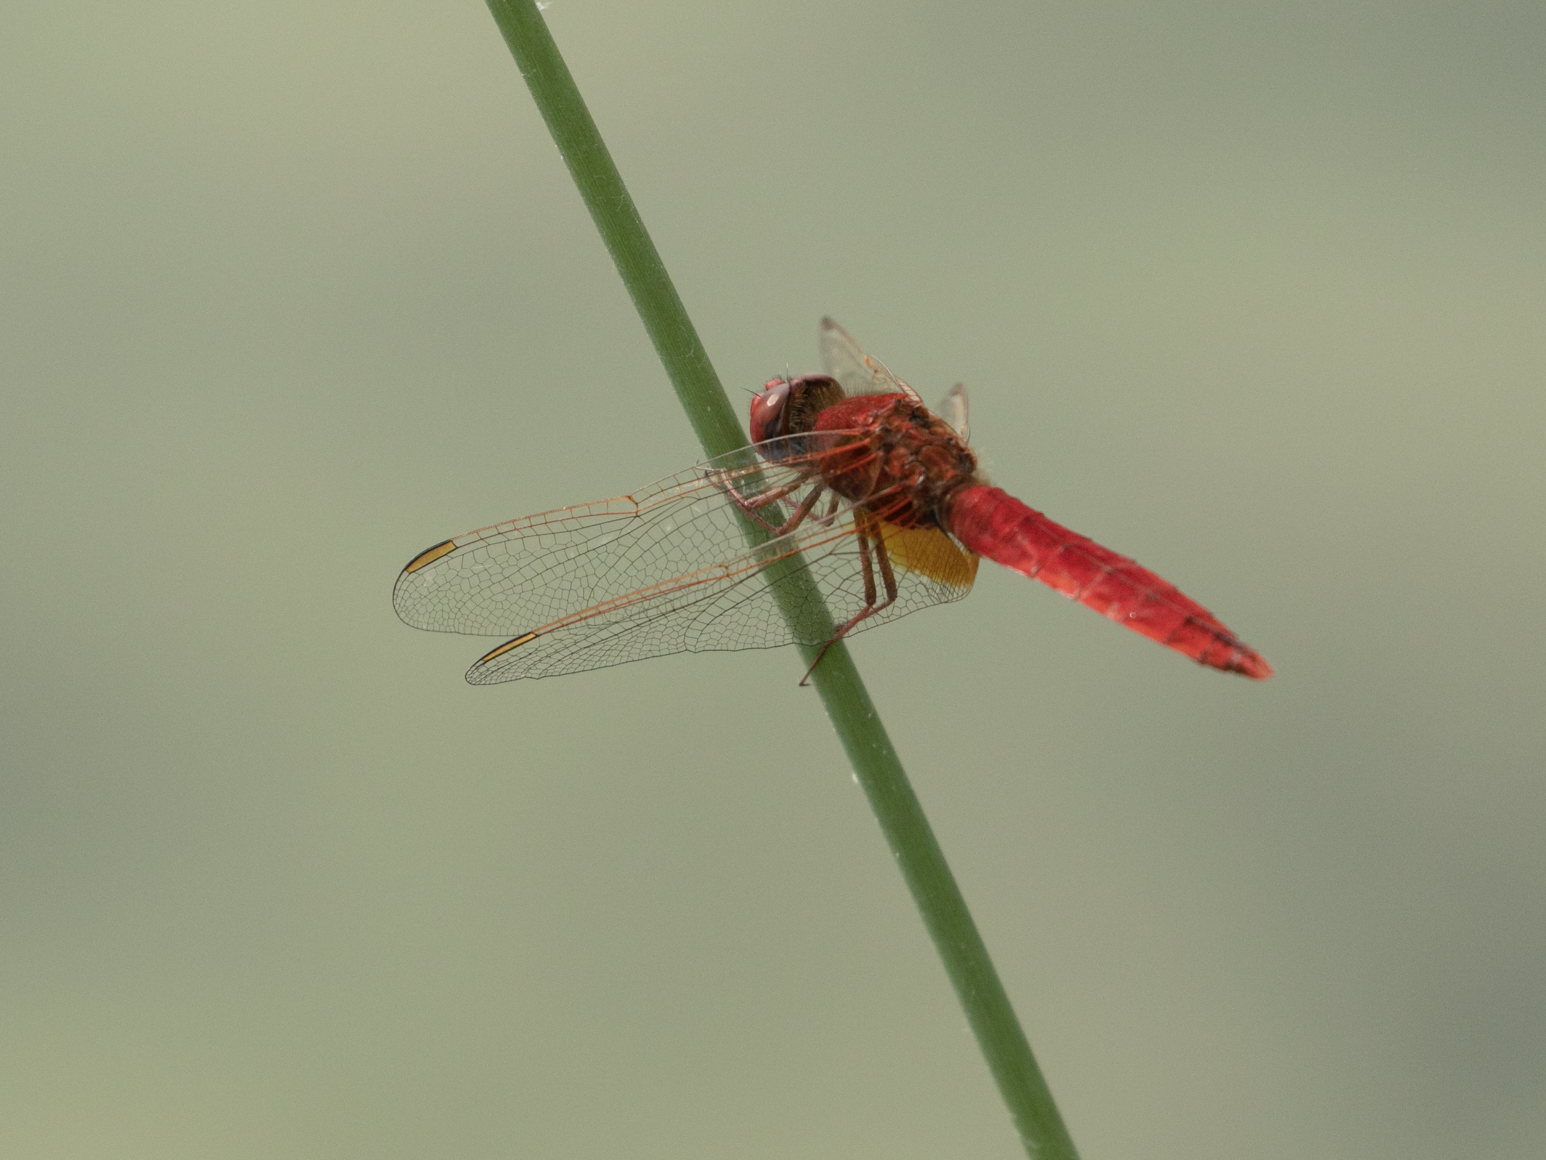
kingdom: Animalia
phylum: Arthropoda
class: Insecta
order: Odonata
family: Libellulidae
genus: Crocothemis
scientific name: Crocothemis erythraea
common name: Scarlet dragonfly
